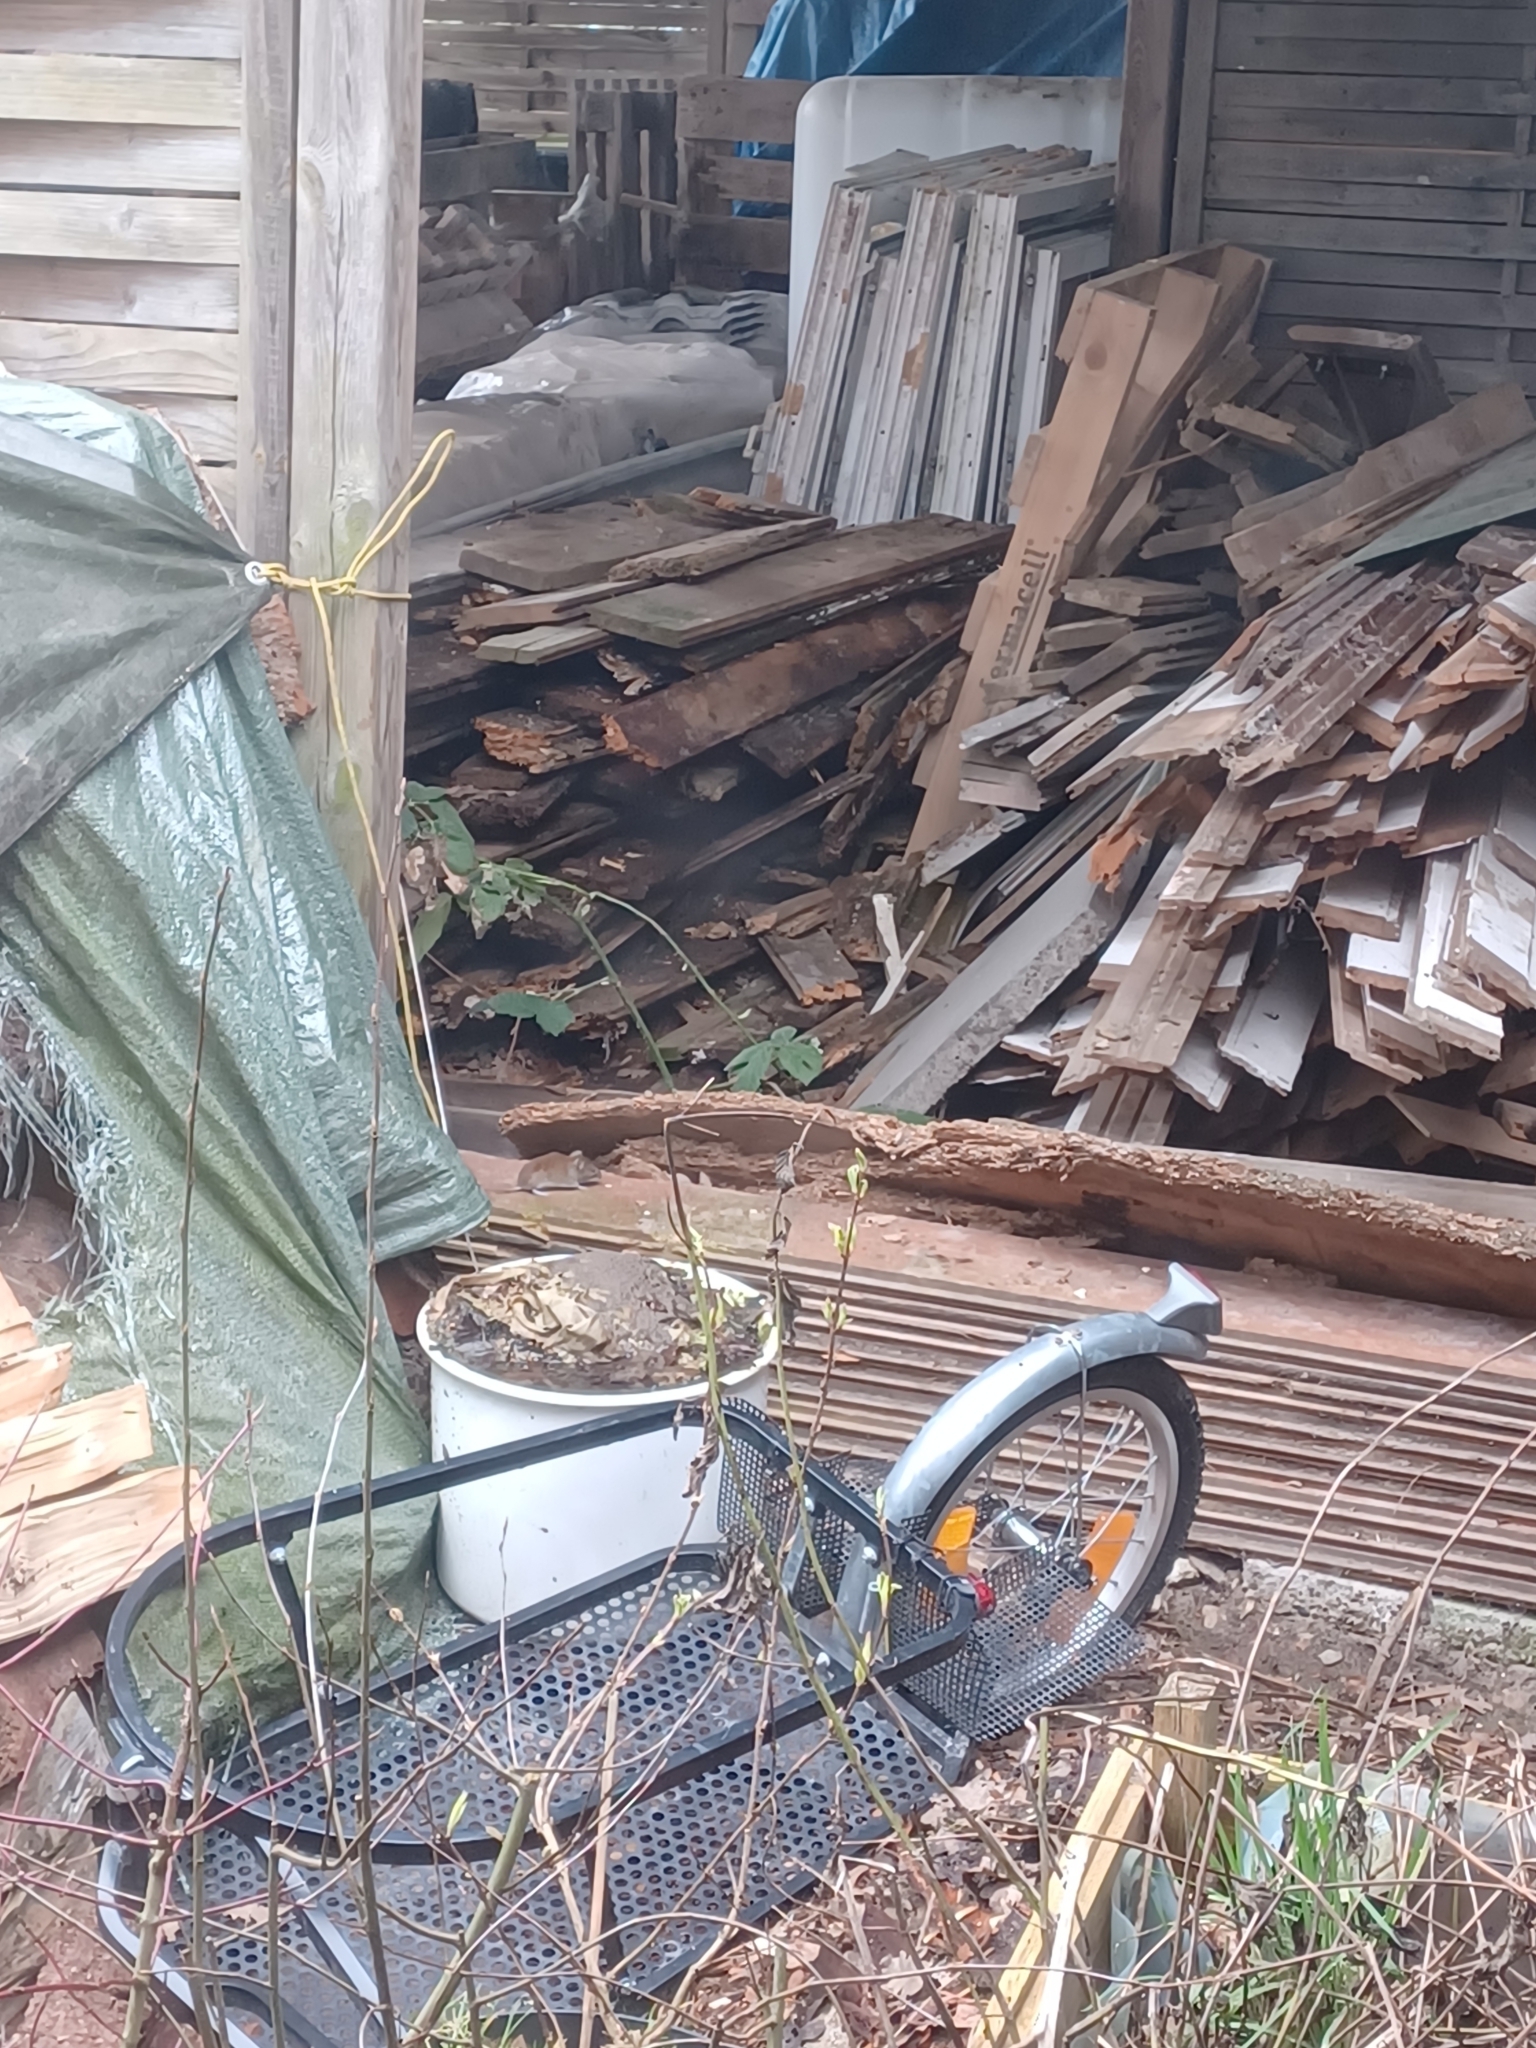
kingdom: Animalia
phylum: Chordata
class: Mammalia
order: Rodentia
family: Cricetidae
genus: Myodes
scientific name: Myodes glareolus
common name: Bank vole
